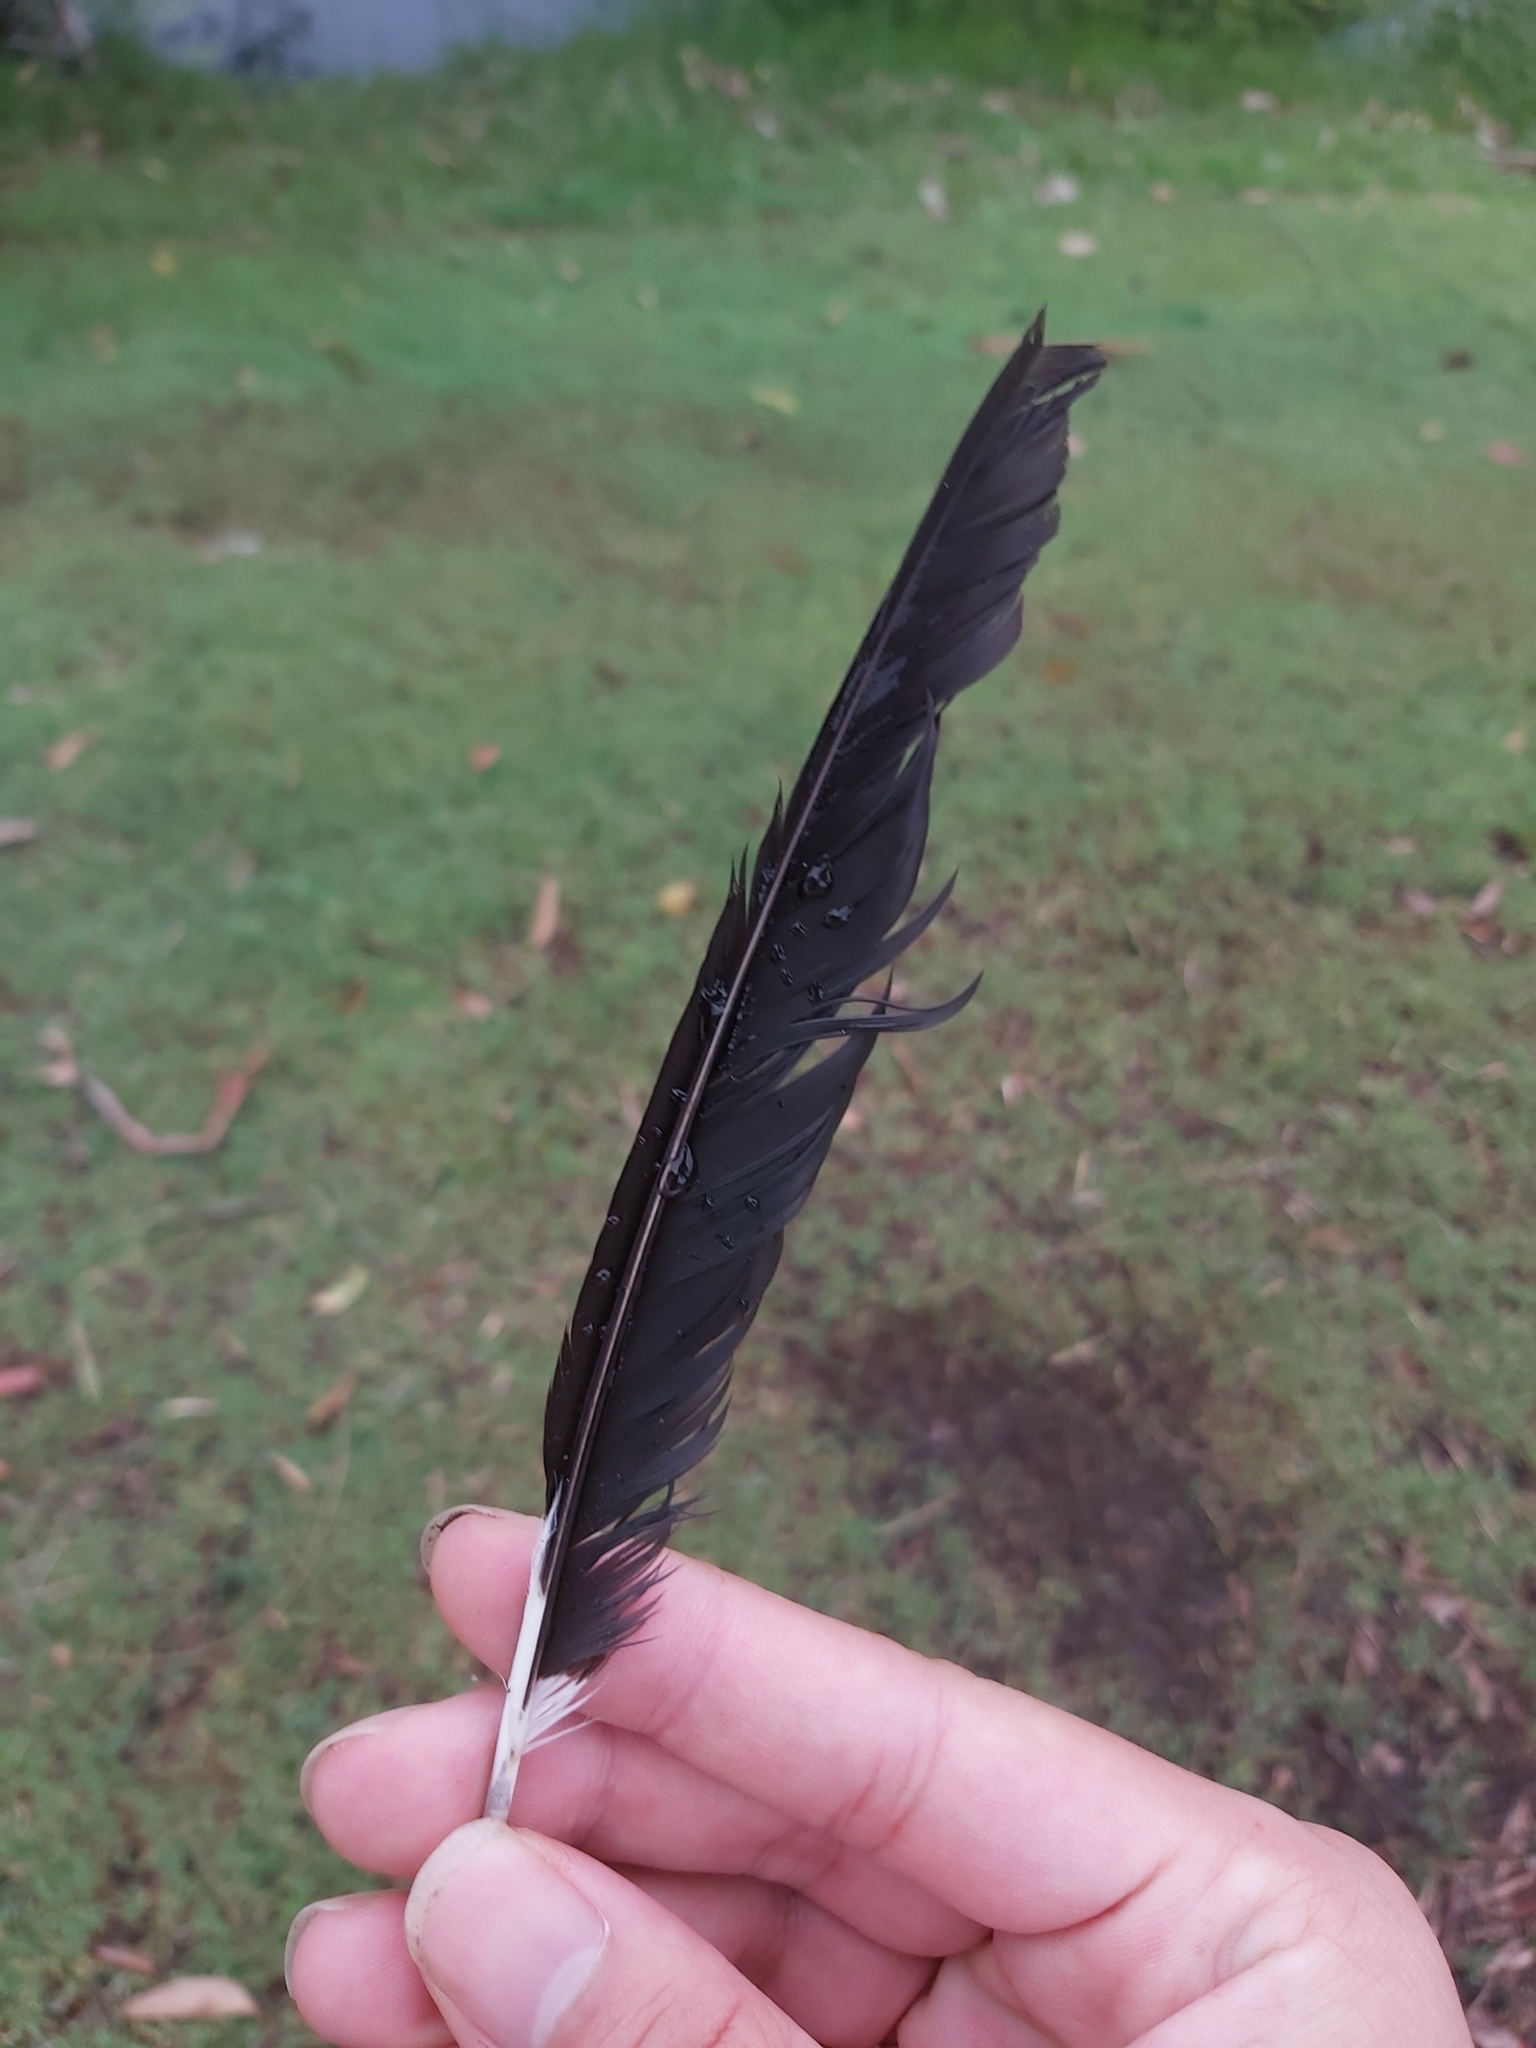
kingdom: Animalia
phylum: Chordata
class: Aves
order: Passeriformes
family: Cracticidae
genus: Gymnorhina
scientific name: Gymnorhina tibicen
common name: Australian magpie
